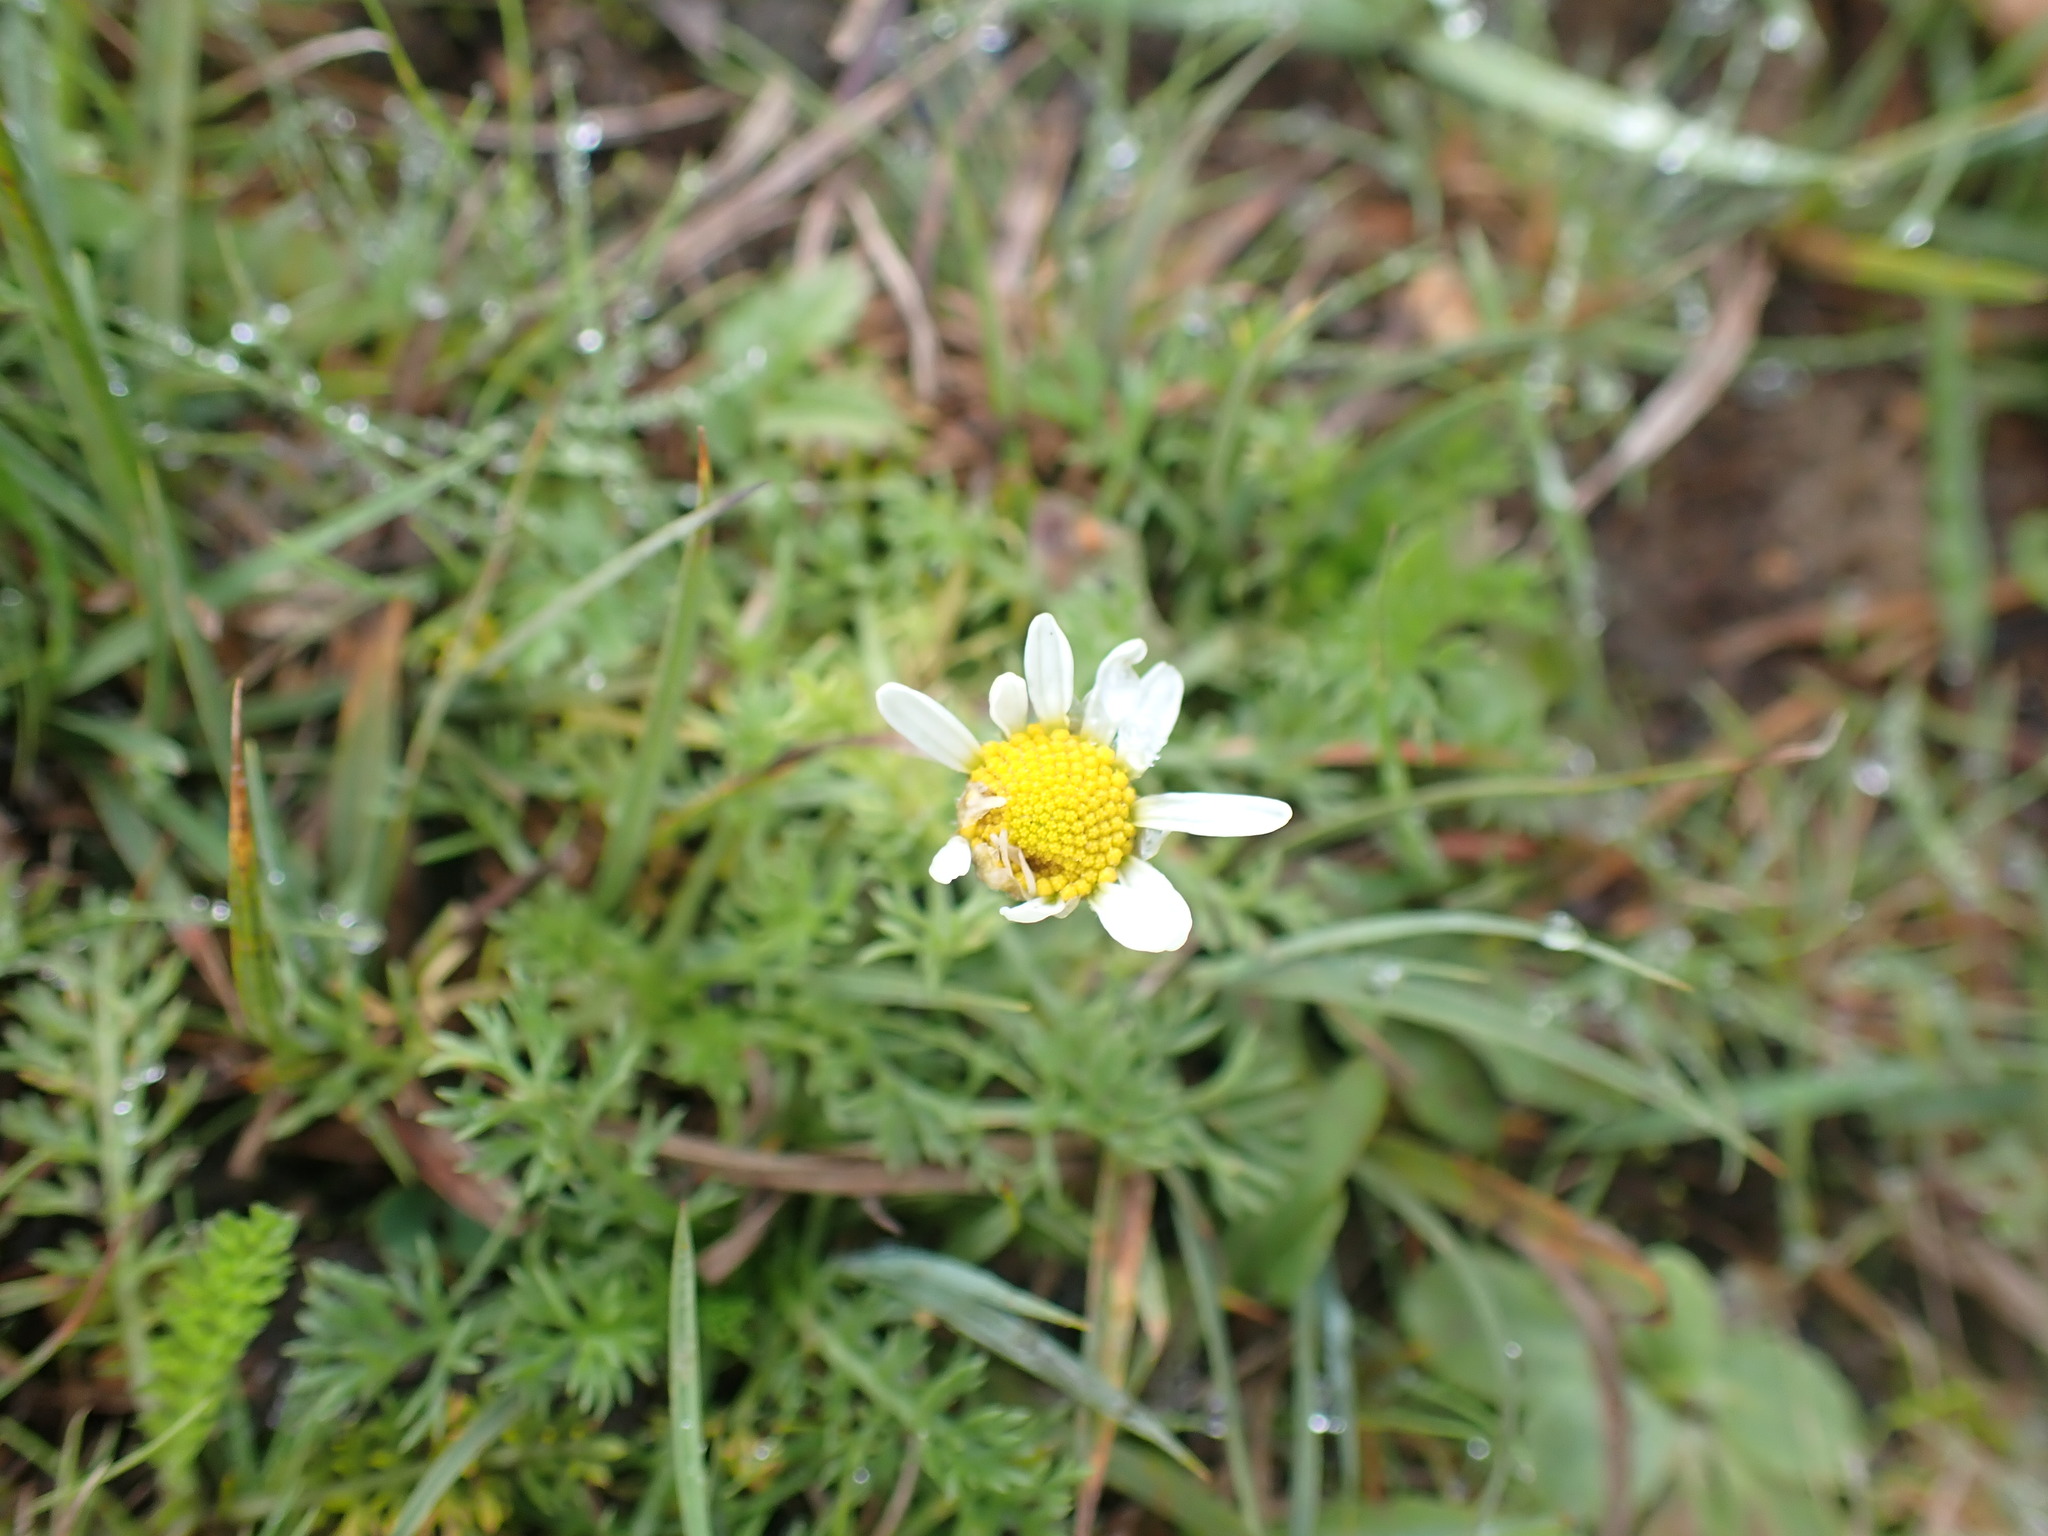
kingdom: Plantae
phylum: Tracheophyta
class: Magnoliopsida
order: Asterales
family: Asteraceae
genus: Chamaemelum
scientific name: Chamaemelum nobile
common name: Roman chamomile
